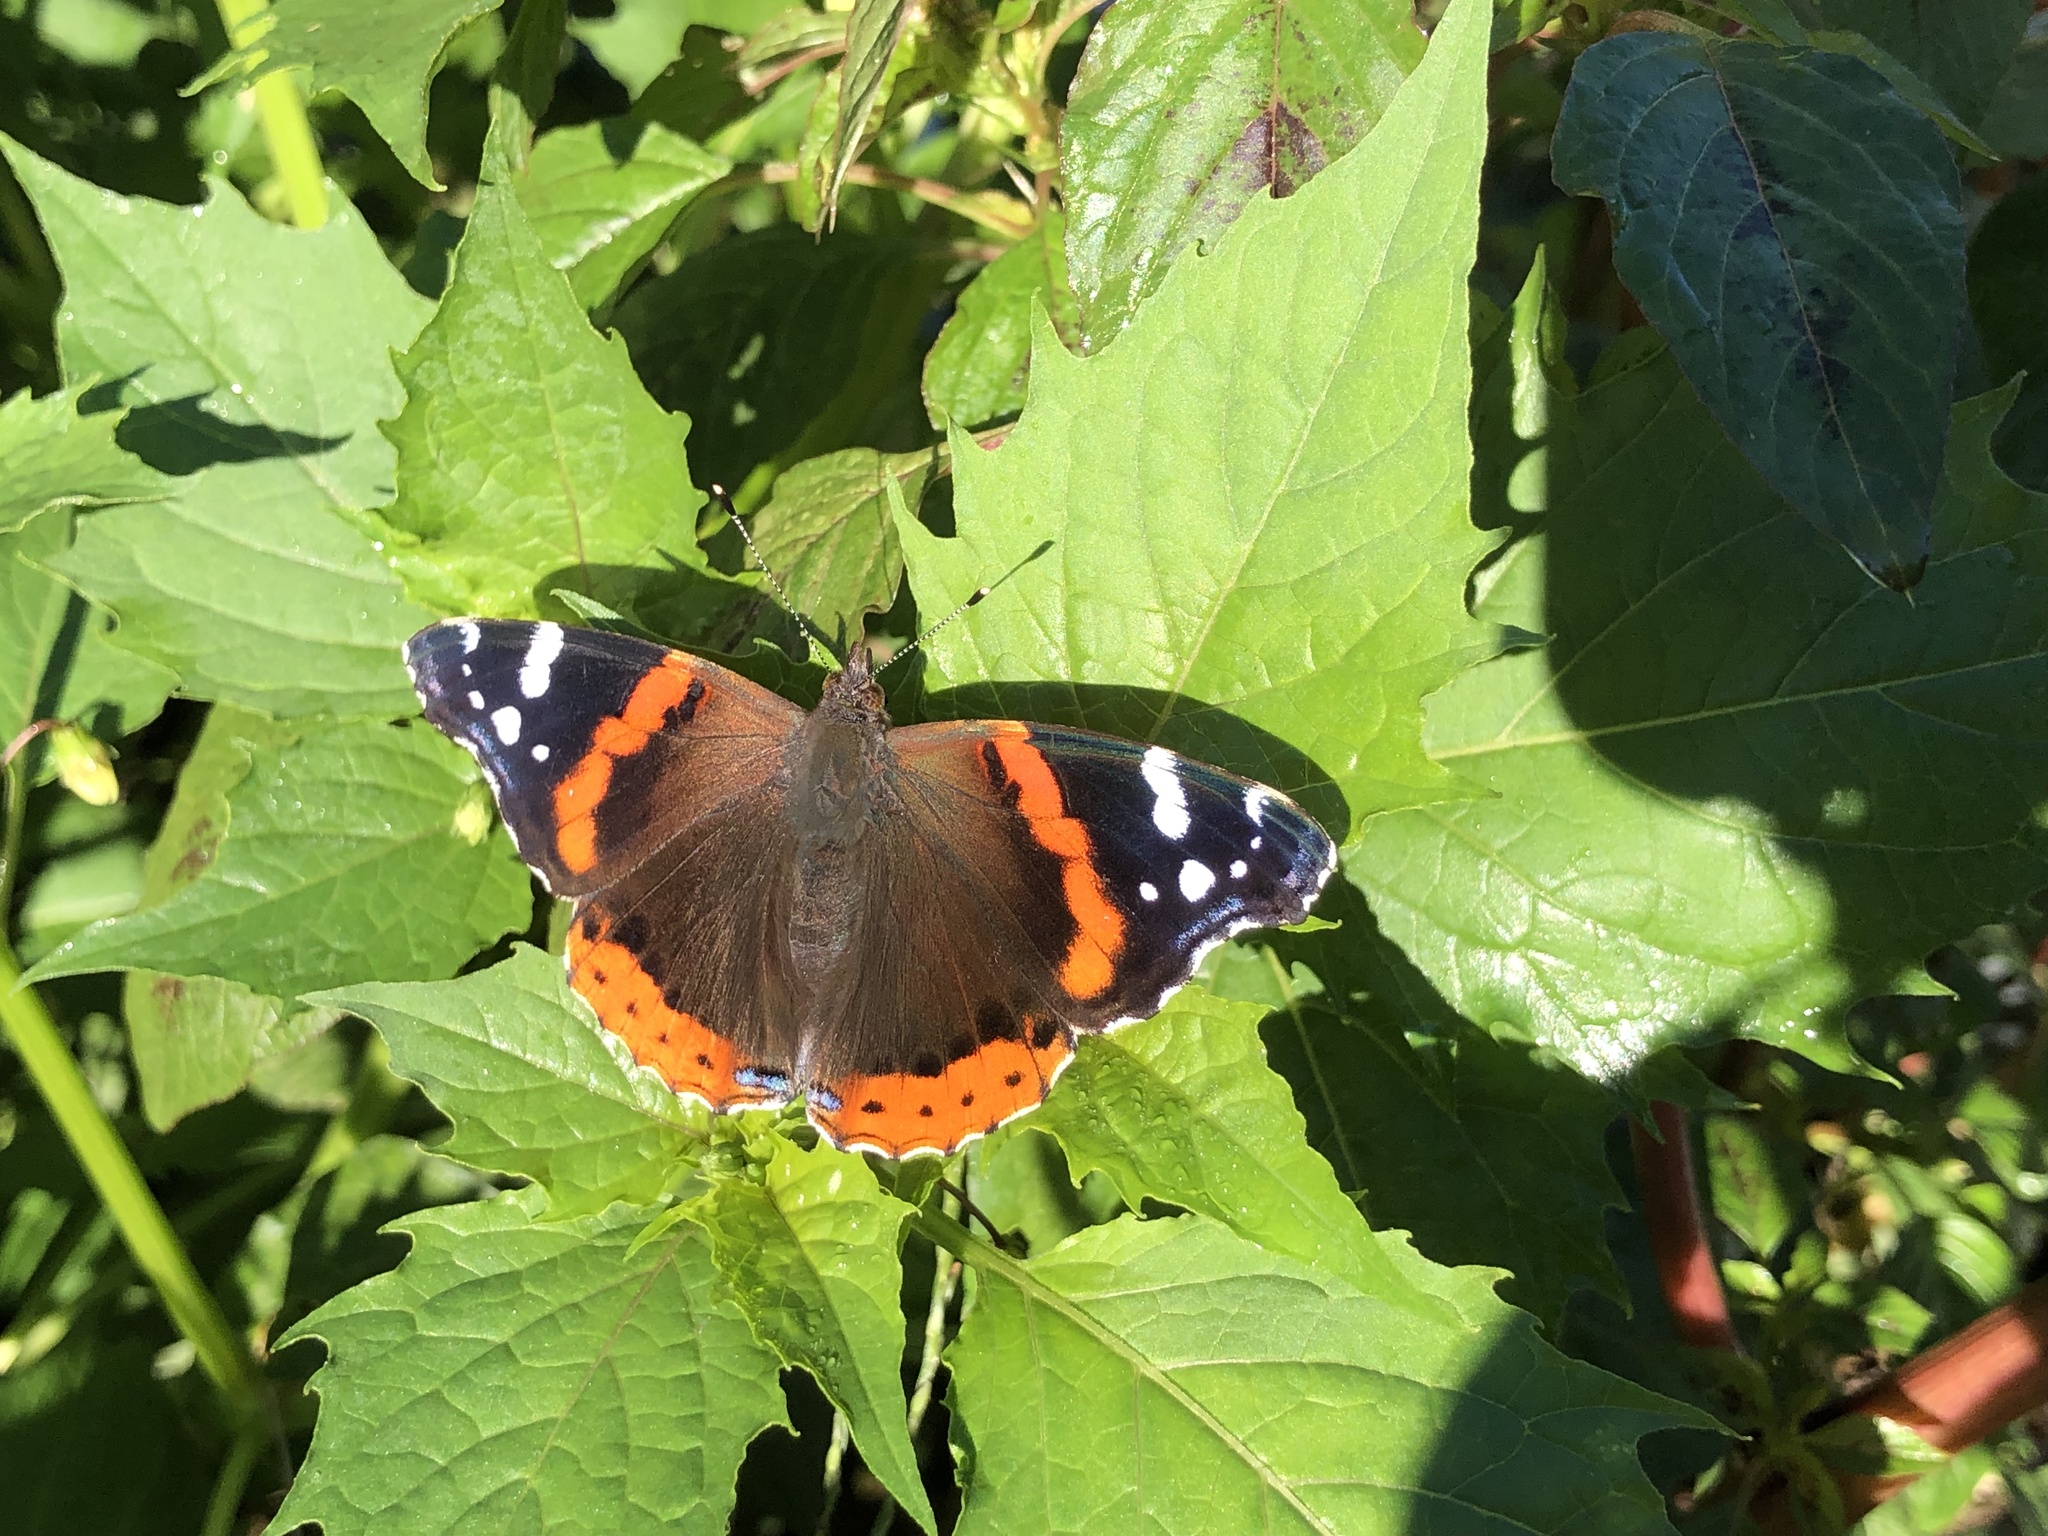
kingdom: Animalia
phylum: Arthropoda
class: Insecta
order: Lepidoptera
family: Nymphalidae
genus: Vanessa
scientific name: Vanessa atalanta
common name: Red admiral
